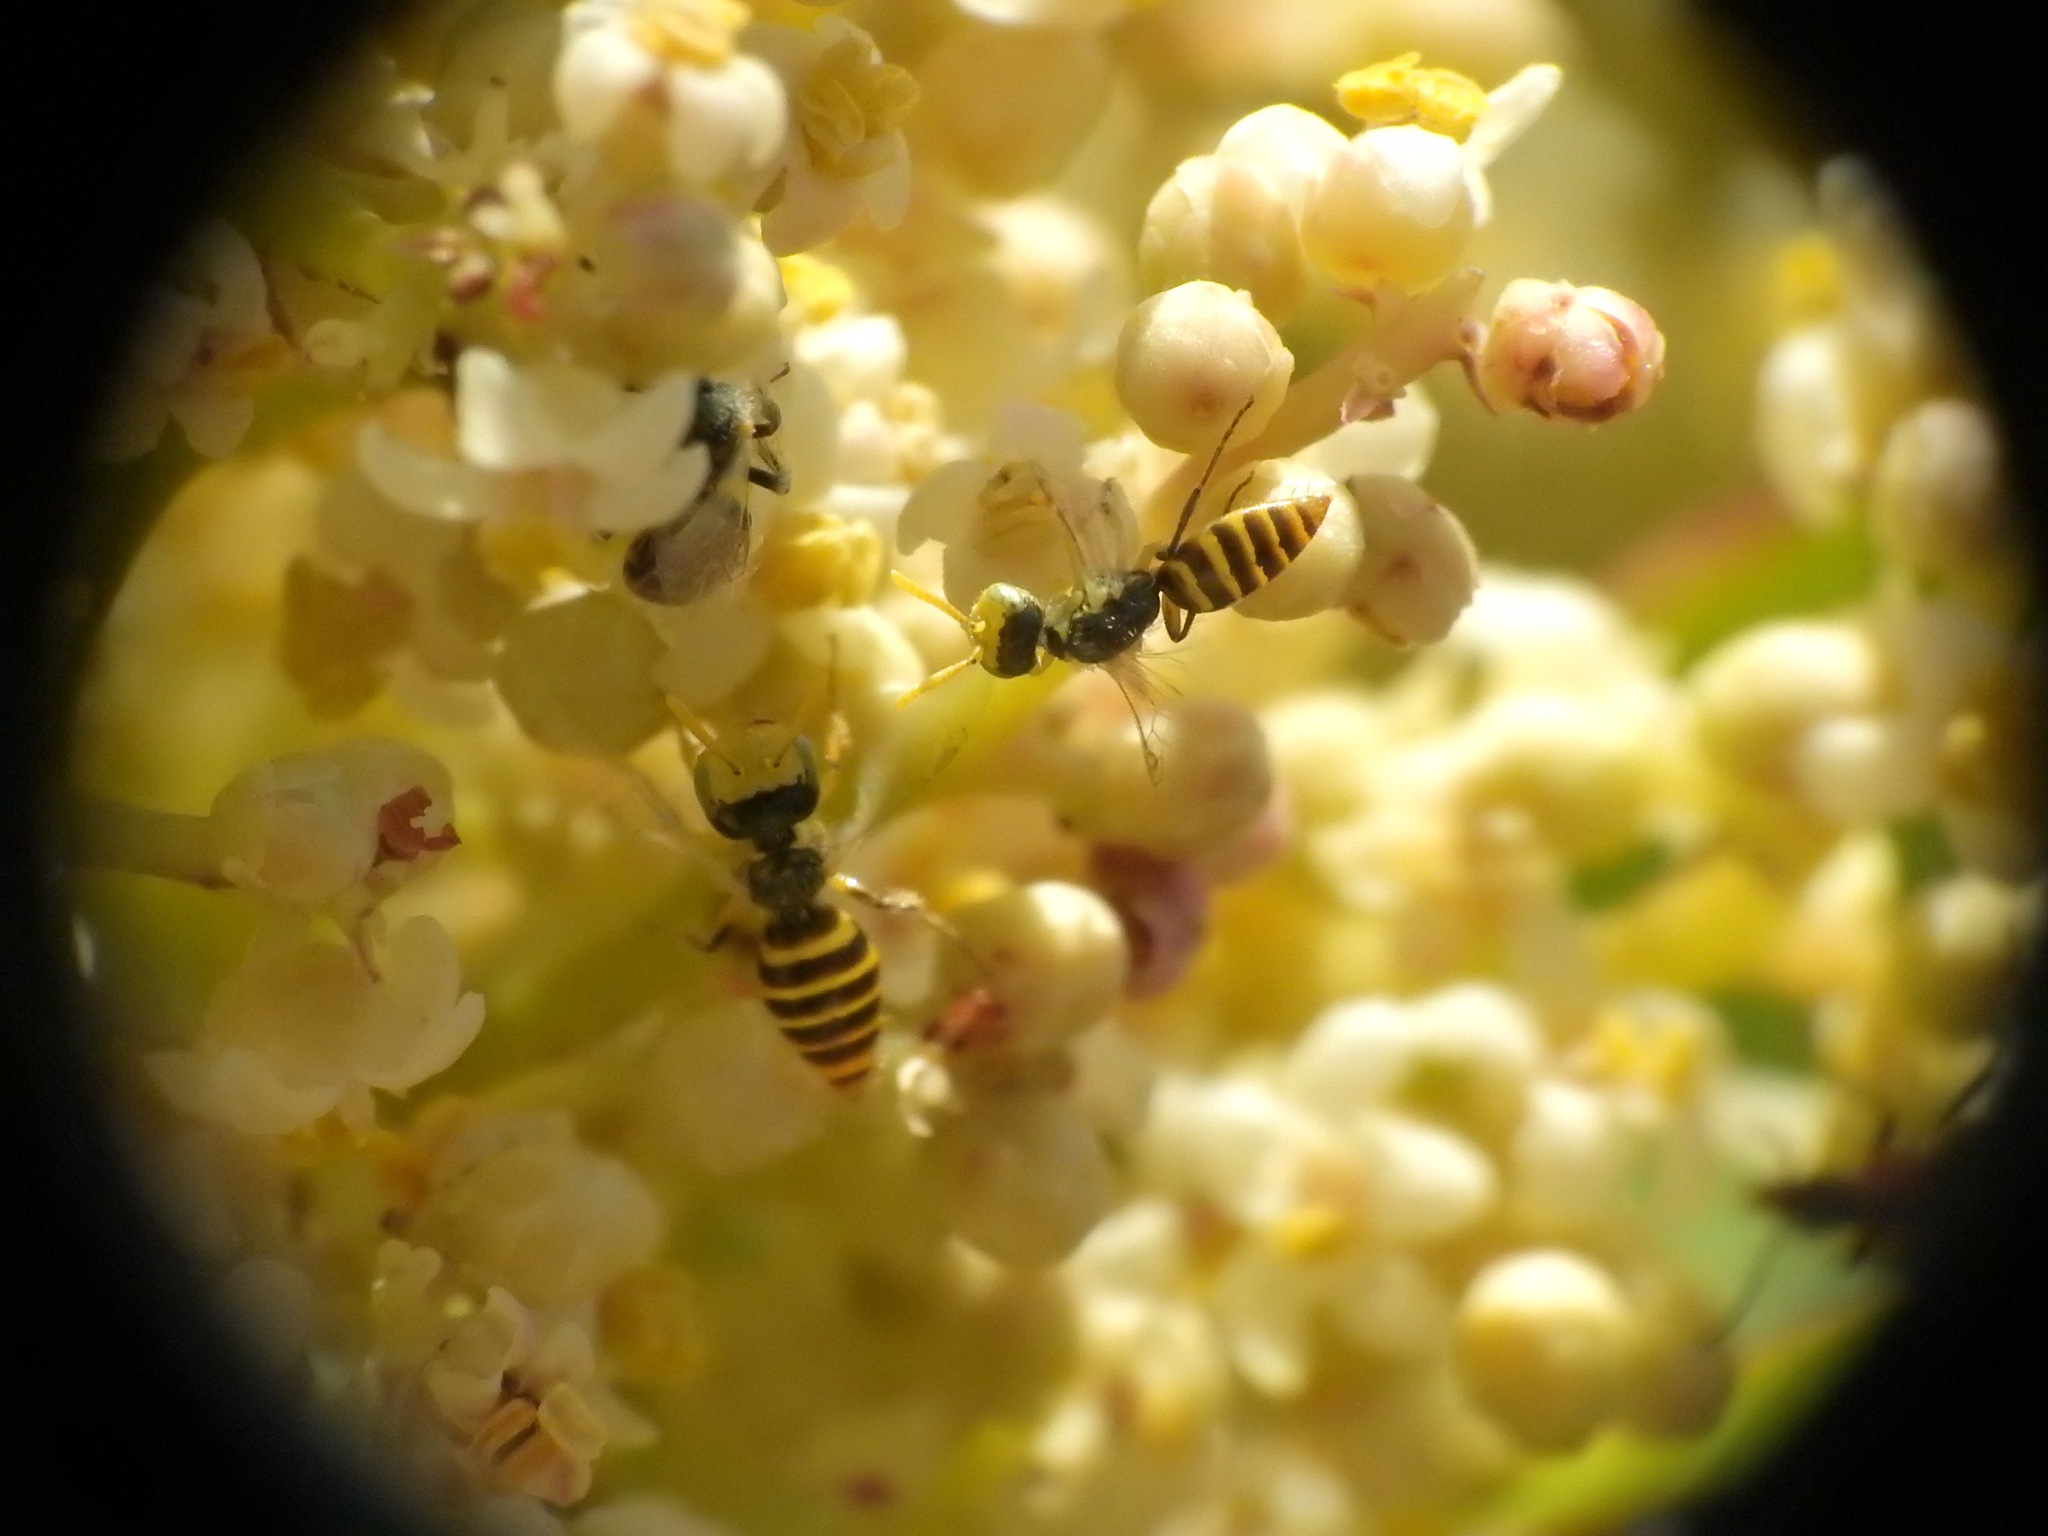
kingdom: Animalia
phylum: Arthropoda
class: Insecta
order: Hymenoptera
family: Andrenidae
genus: Perdita
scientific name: Perdita rhois
